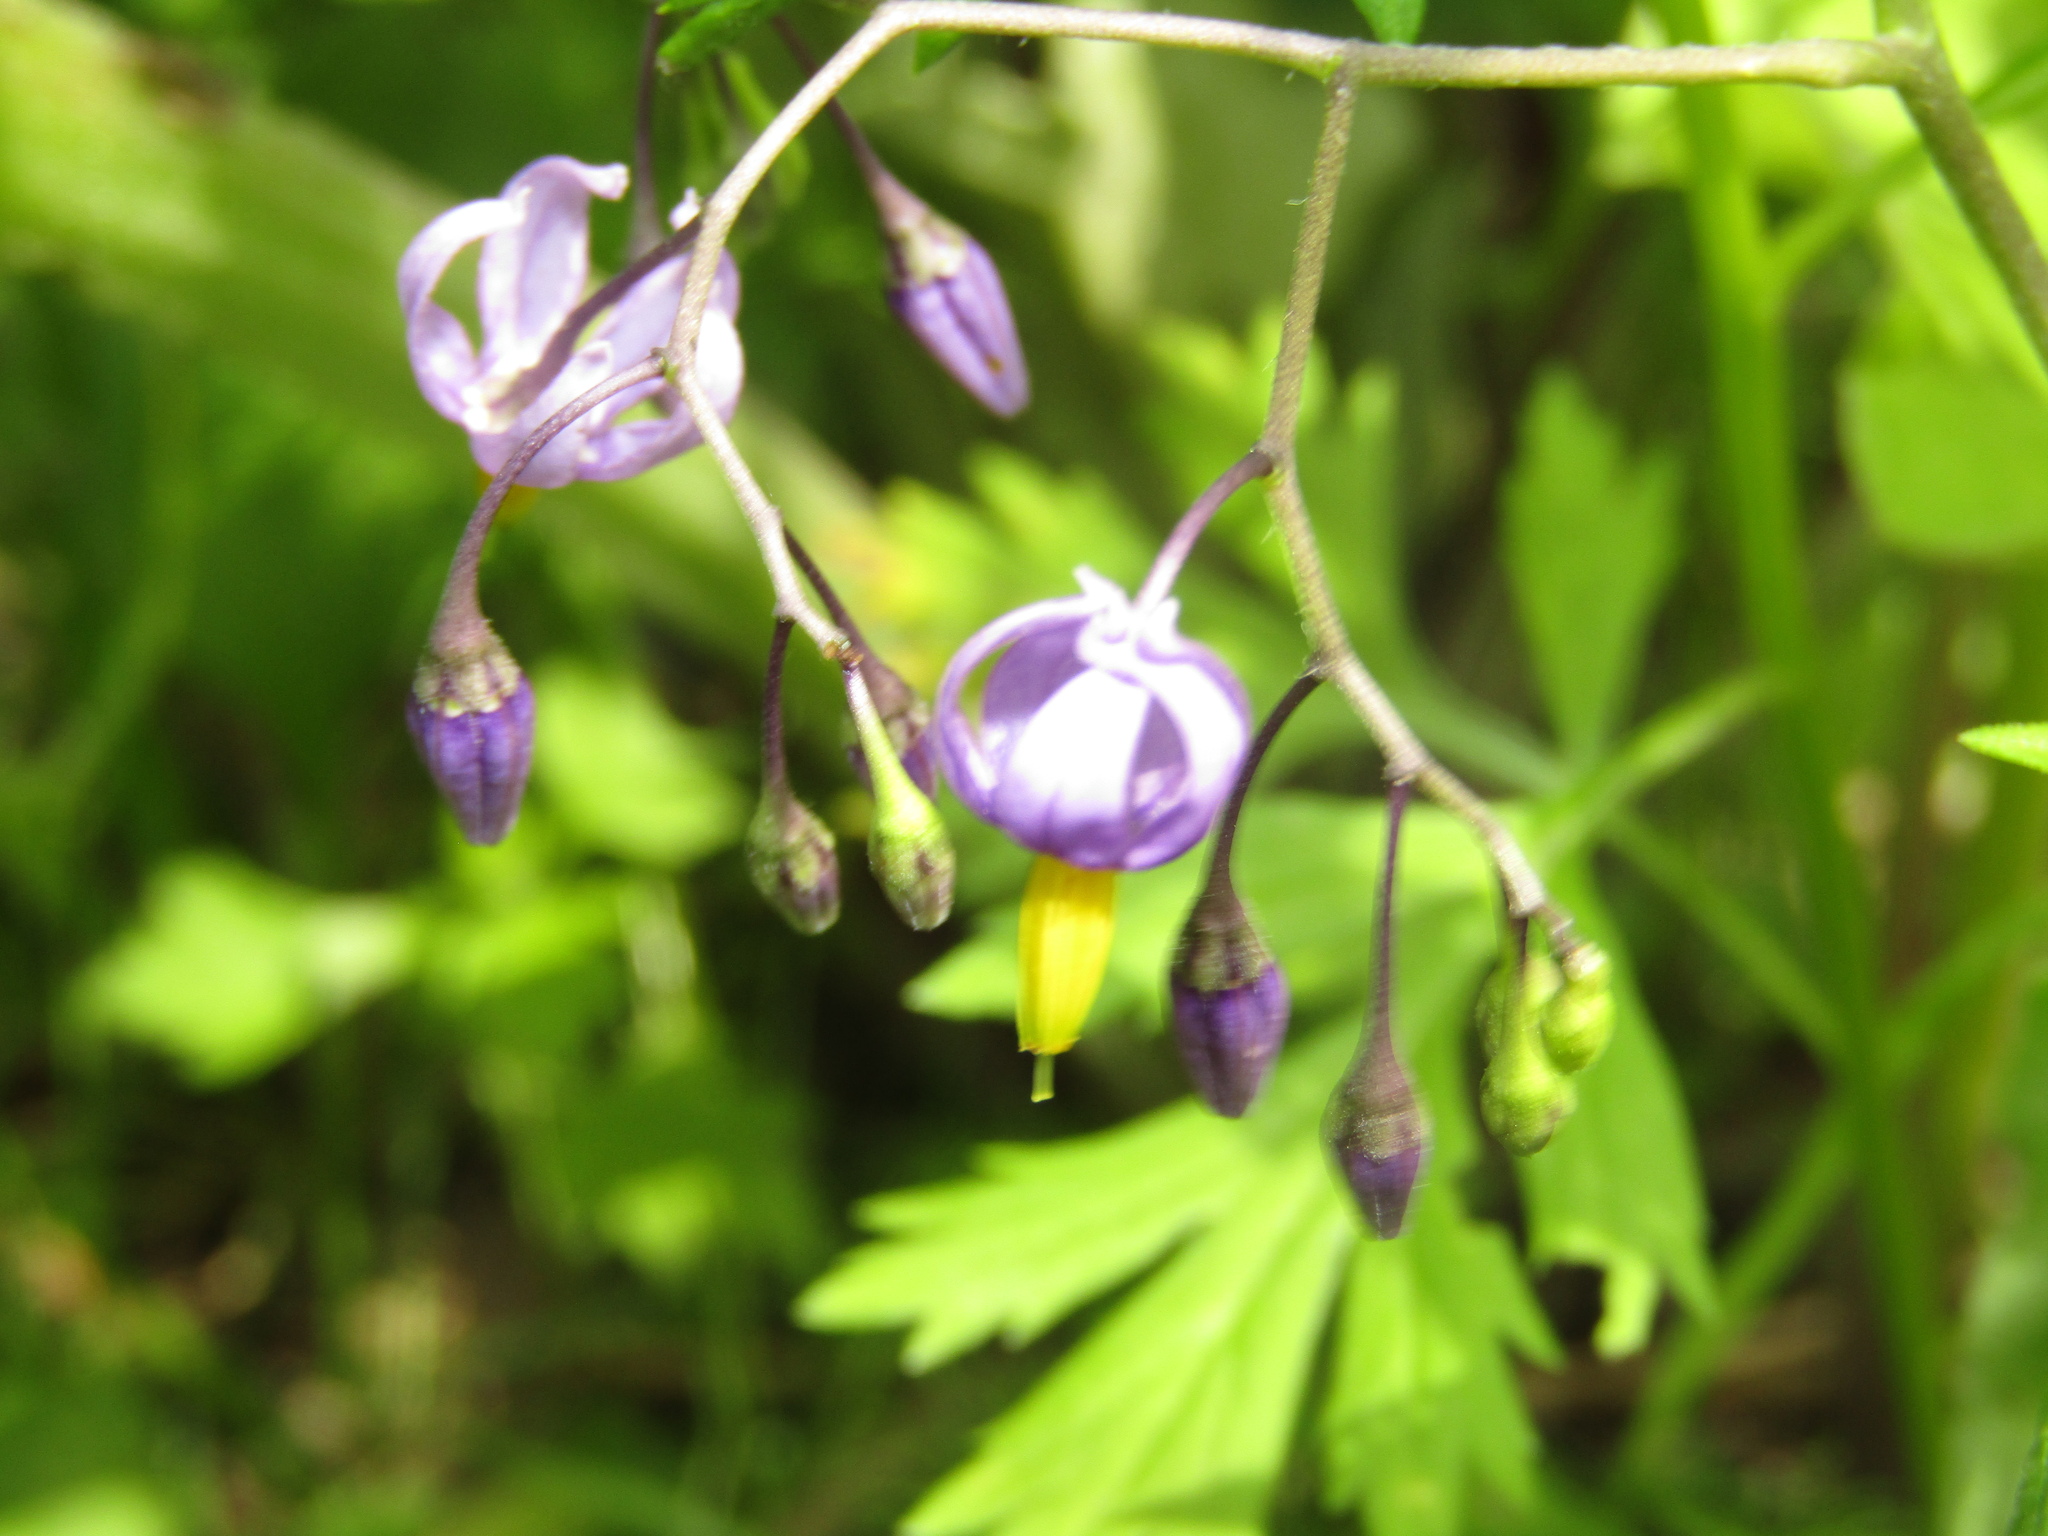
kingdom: Plantae
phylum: Tracheophyta
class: Magnoliopsida
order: Solanales
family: Solanaceae
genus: Solanum
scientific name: Solanum dulcamara
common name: Climbing nightshade
